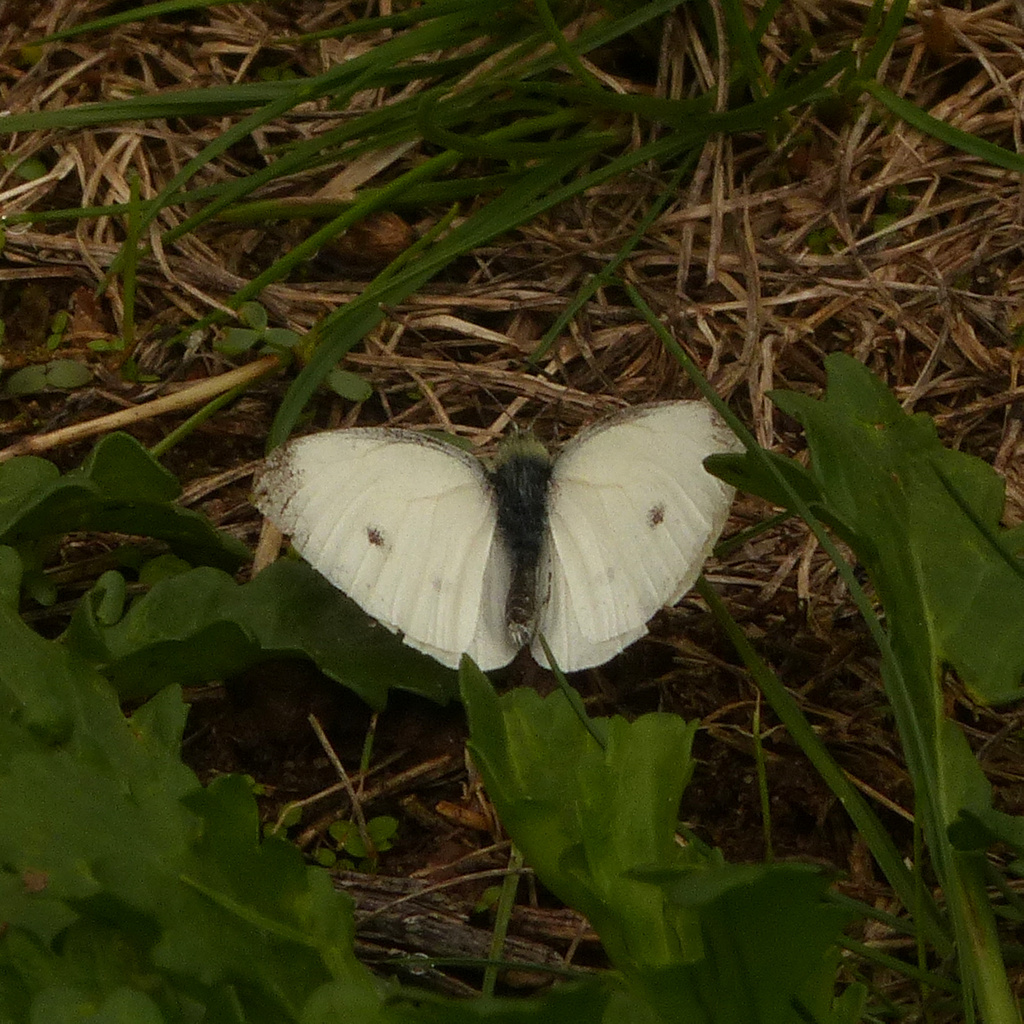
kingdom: Animalia
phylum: Arthropoda
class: Insecta
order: Lepidoptera
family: Pieridae
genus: Pieris
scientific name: Pieris rapae
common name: Small white
